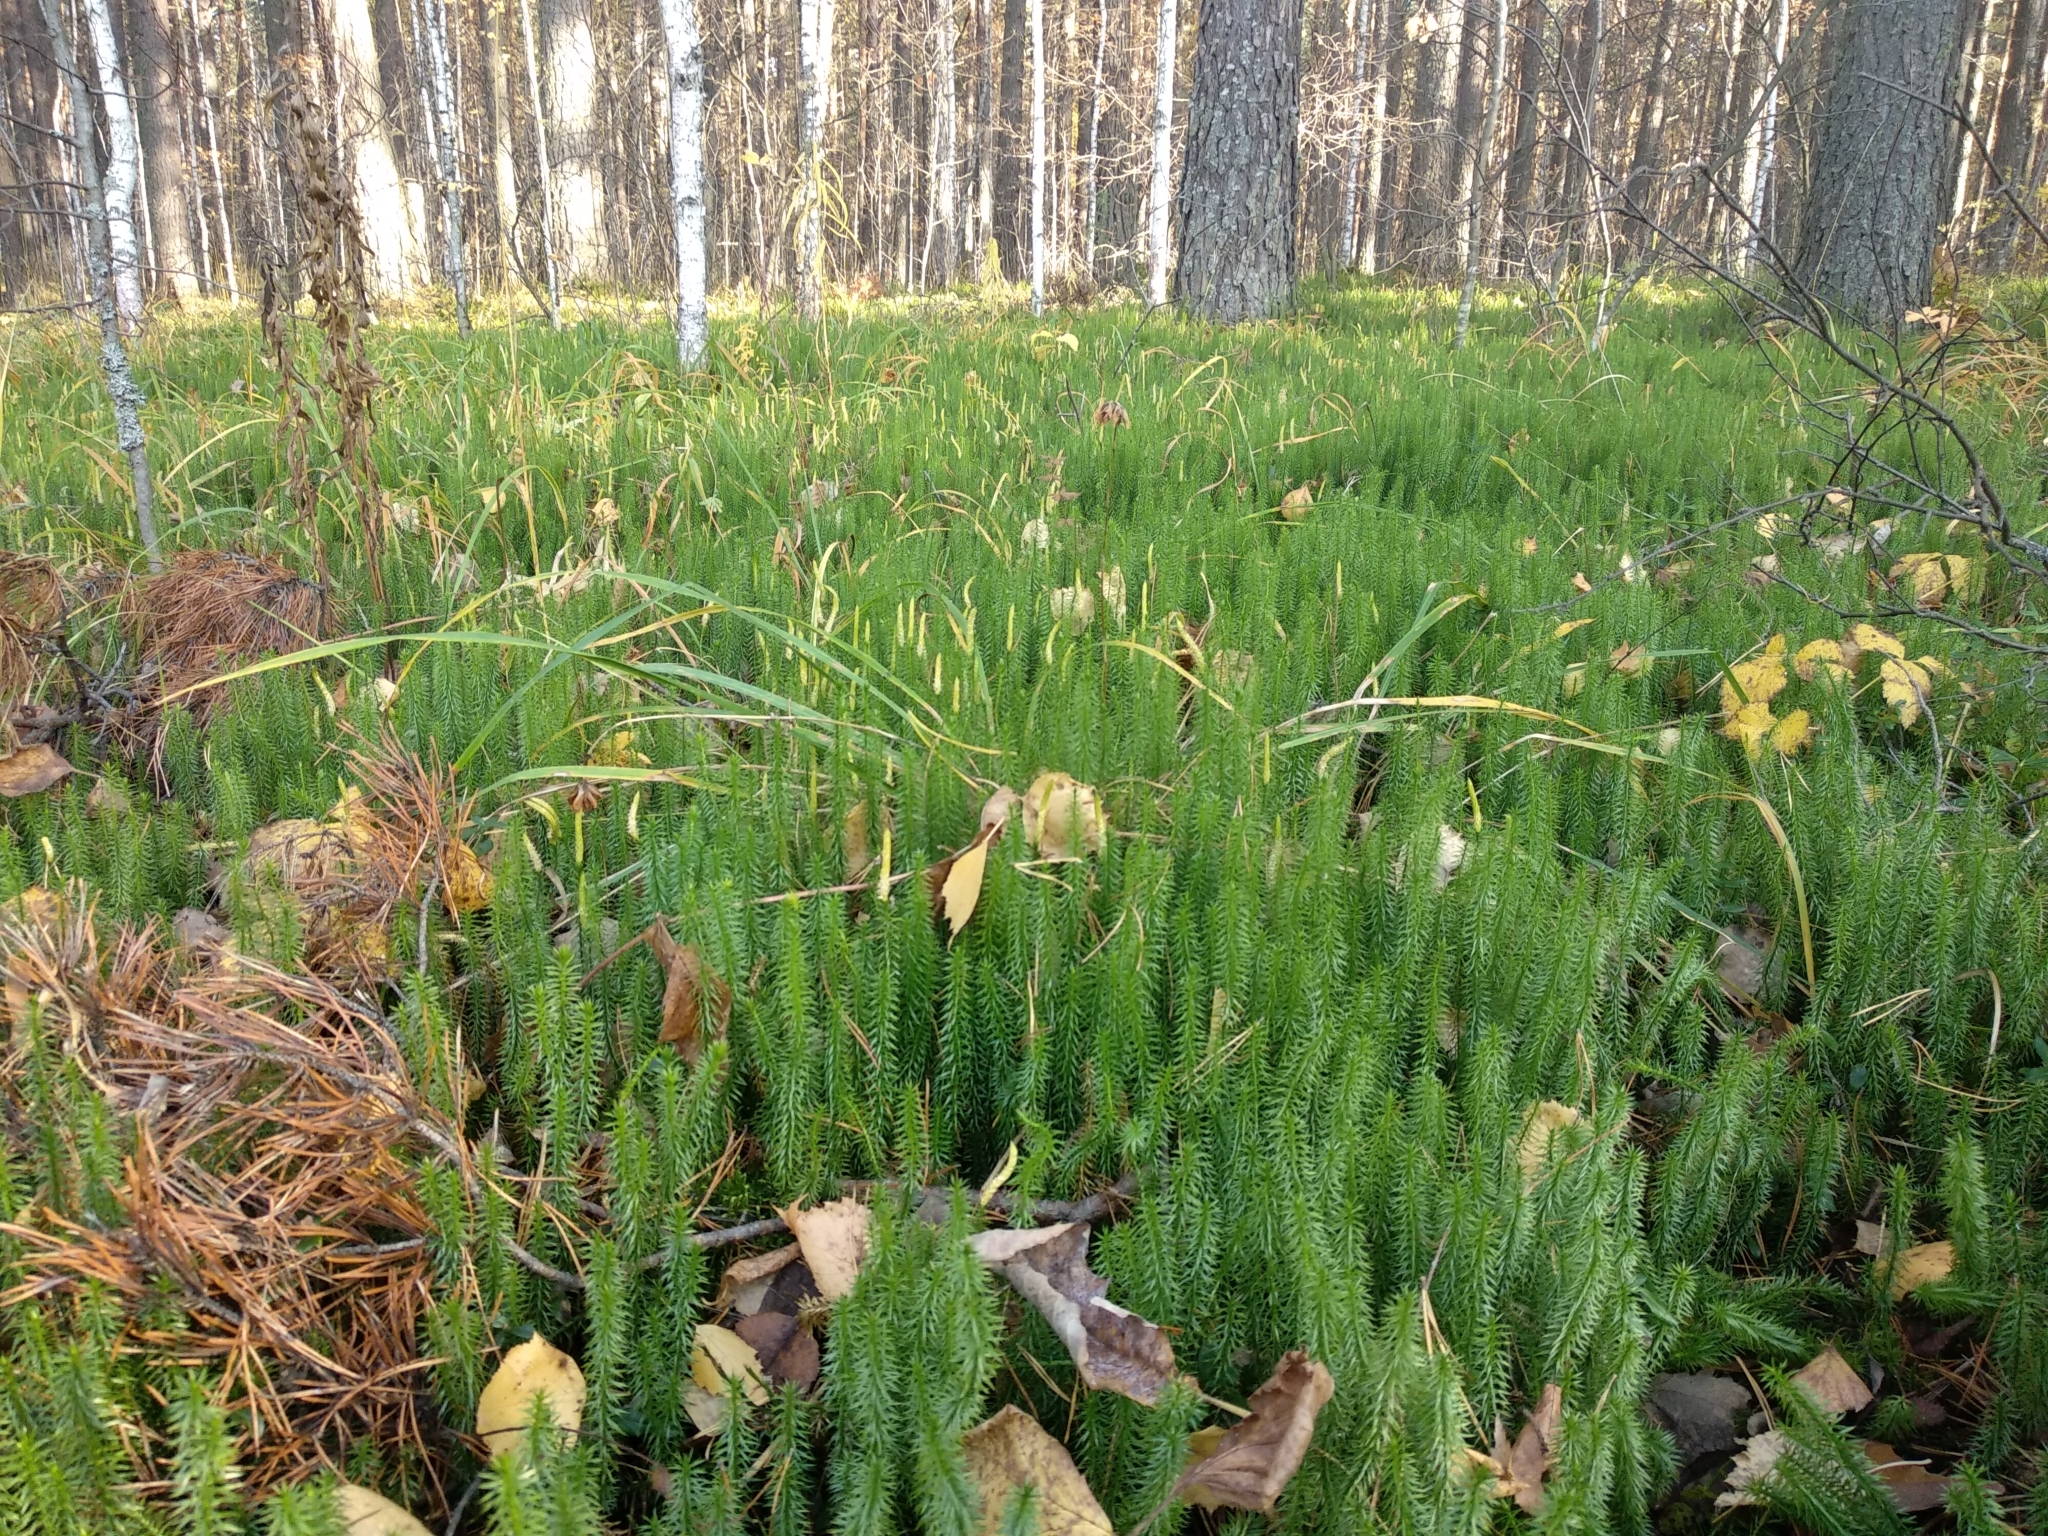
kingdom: Plantae
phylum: Tracheophyta
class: Lycopodiopsida
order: Lycopodiales
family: Lycopodiaceae
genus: Spinulum
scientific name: Spinulum annotinum
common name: Interrupted club-moss
